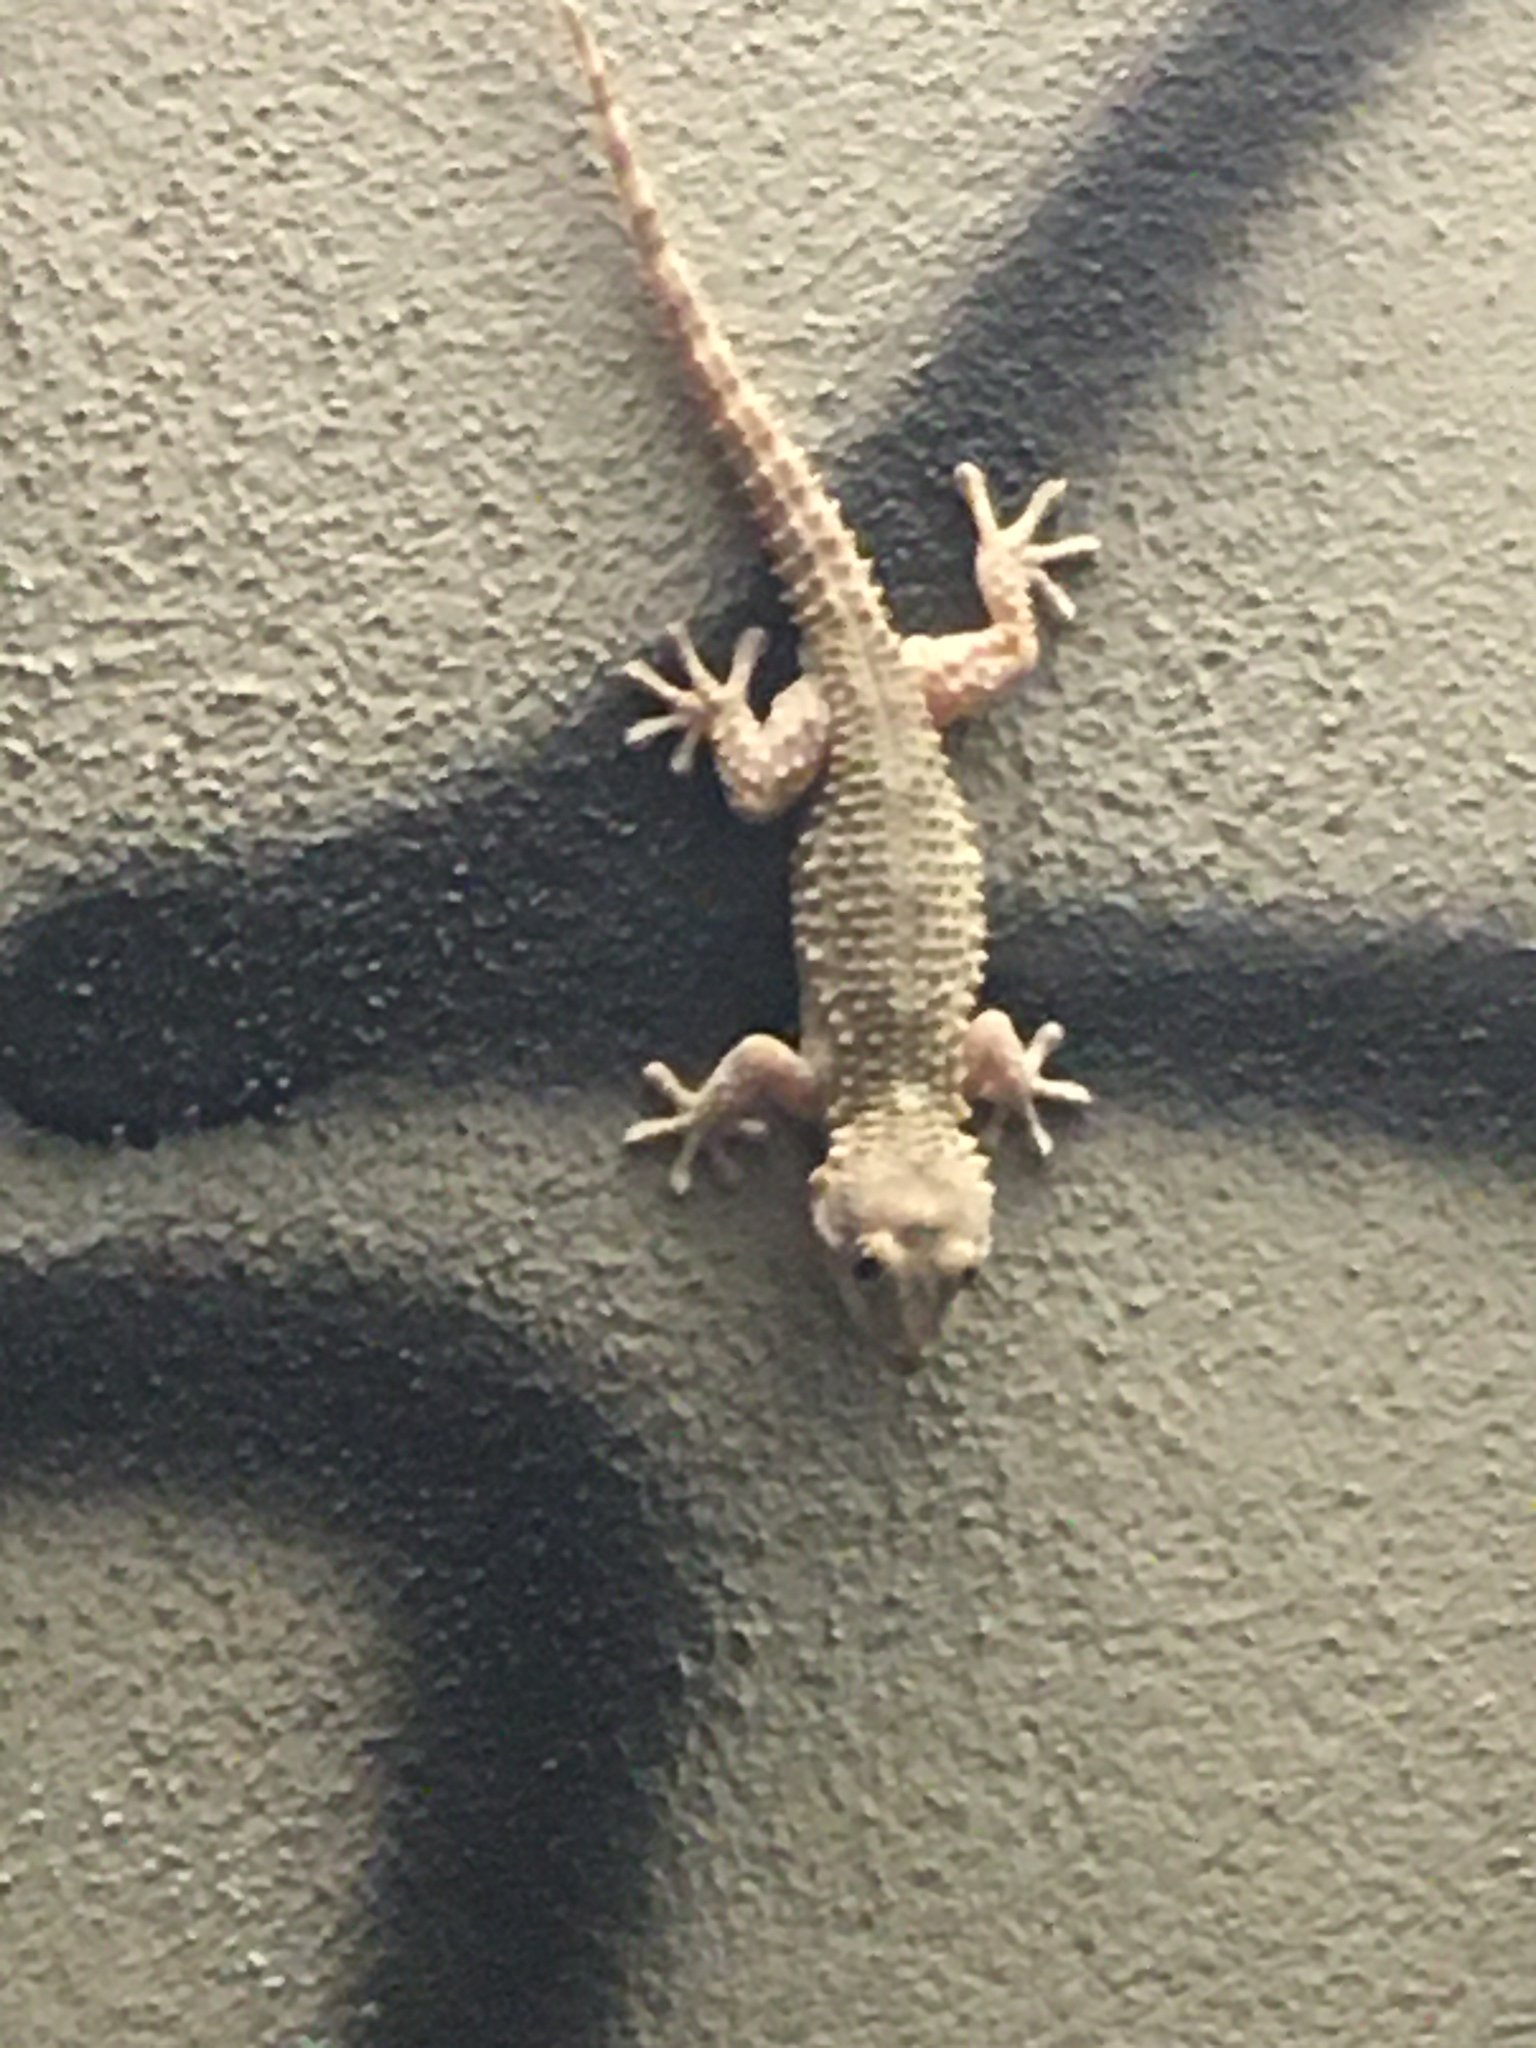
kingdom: Animalia
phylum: Chordata
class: Squamata
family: Phyllodactylidae
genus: Tarentola
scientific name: Tarentola mauritanica
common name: Moorish gecko
